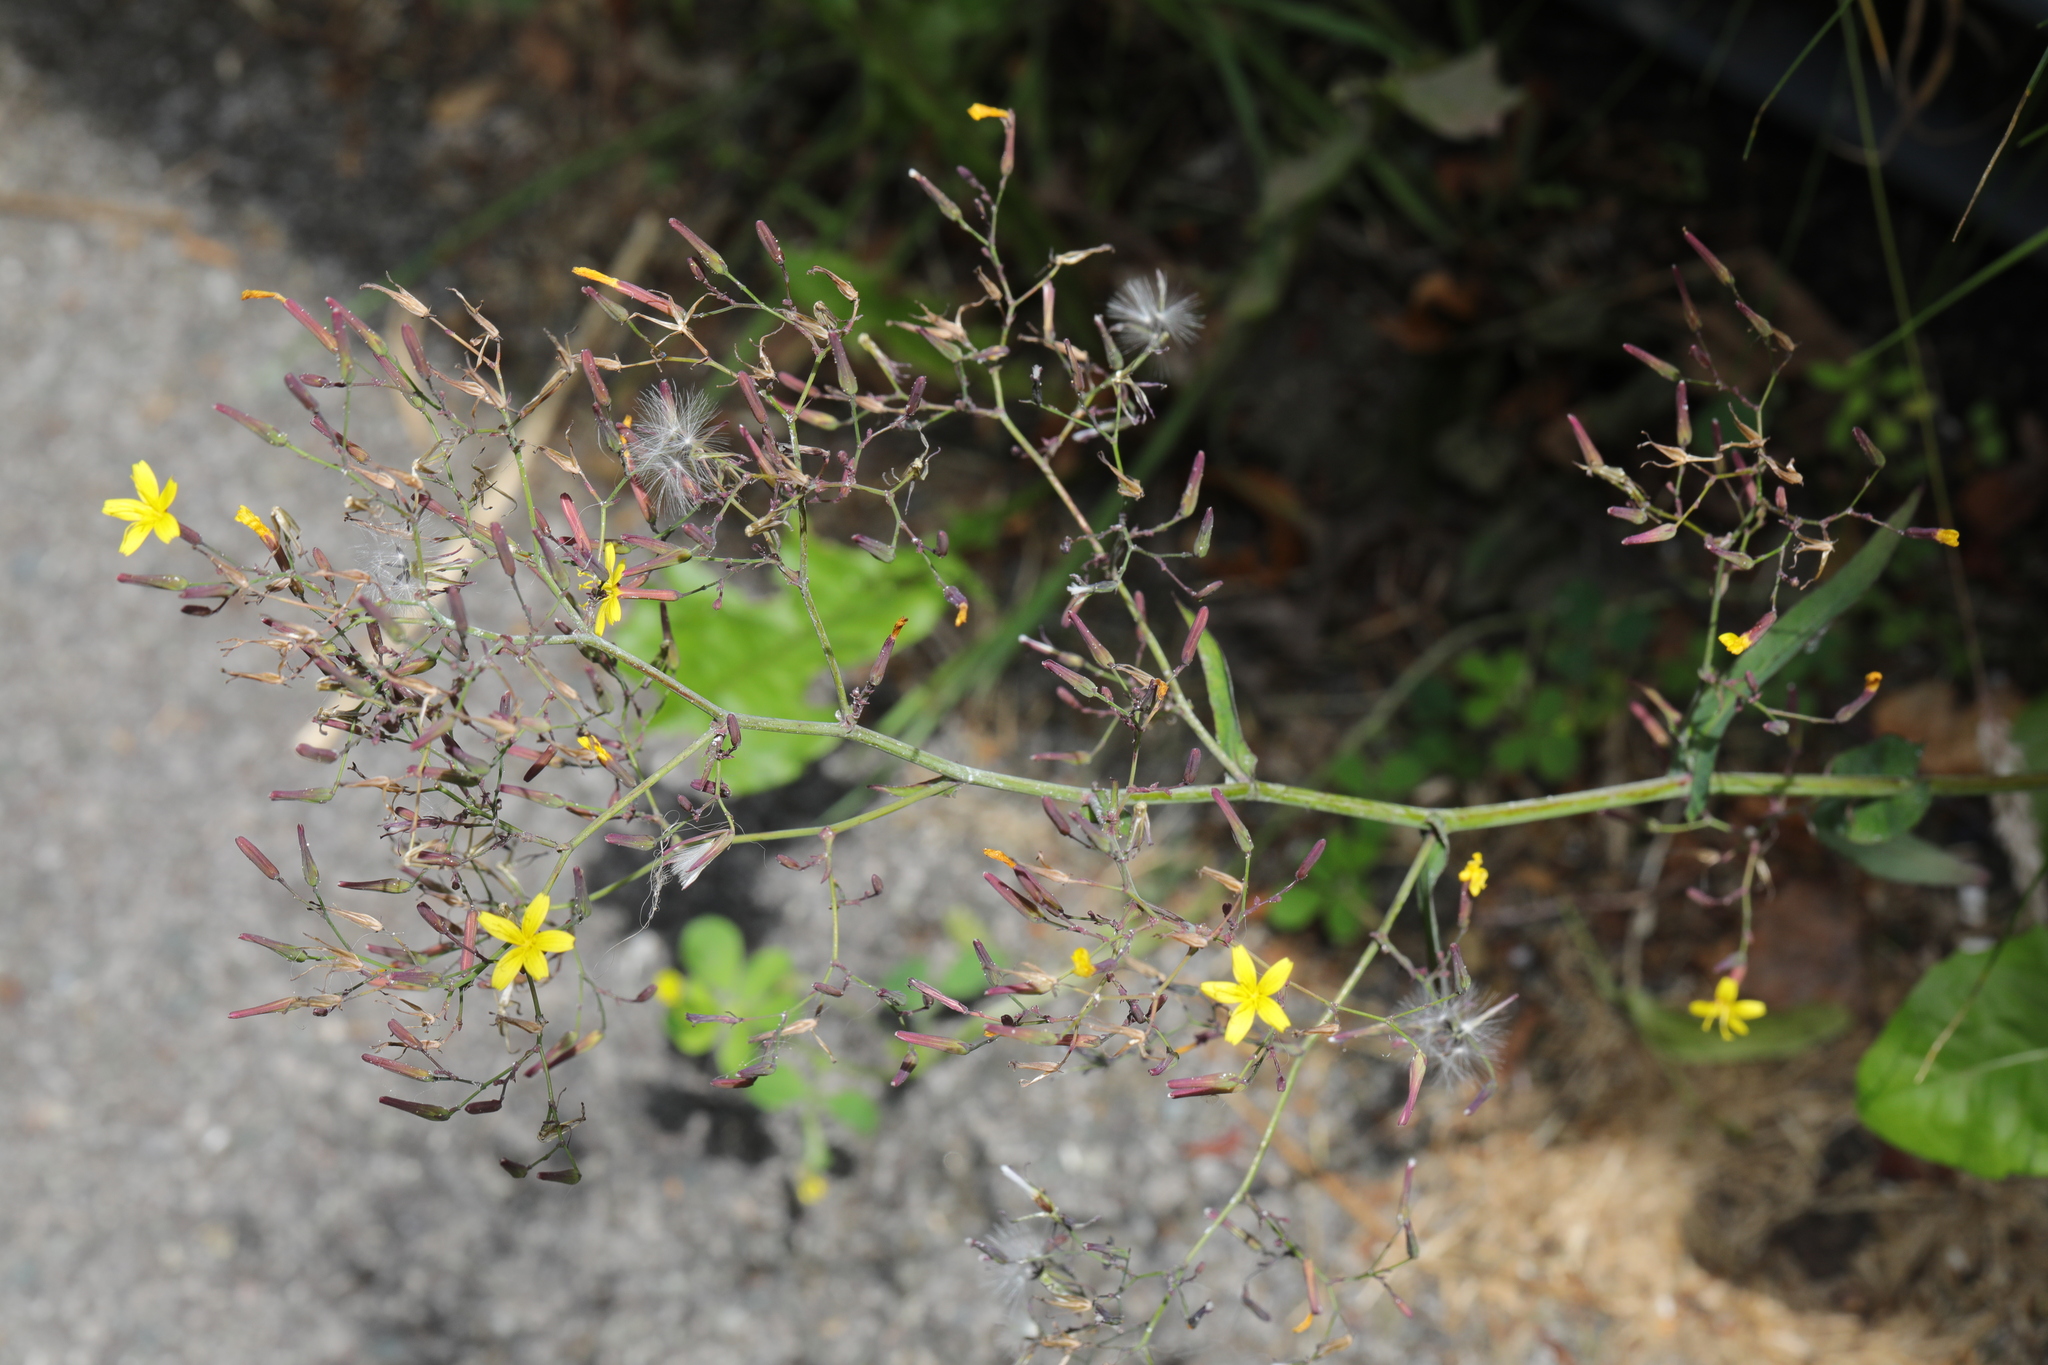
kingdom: Plantae
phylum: Tracheophyta
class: Magnoliopsida
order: Asterales
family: Asteraceae
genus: Mycelis
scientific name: Mycelis muralis
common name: Wall lettuce
